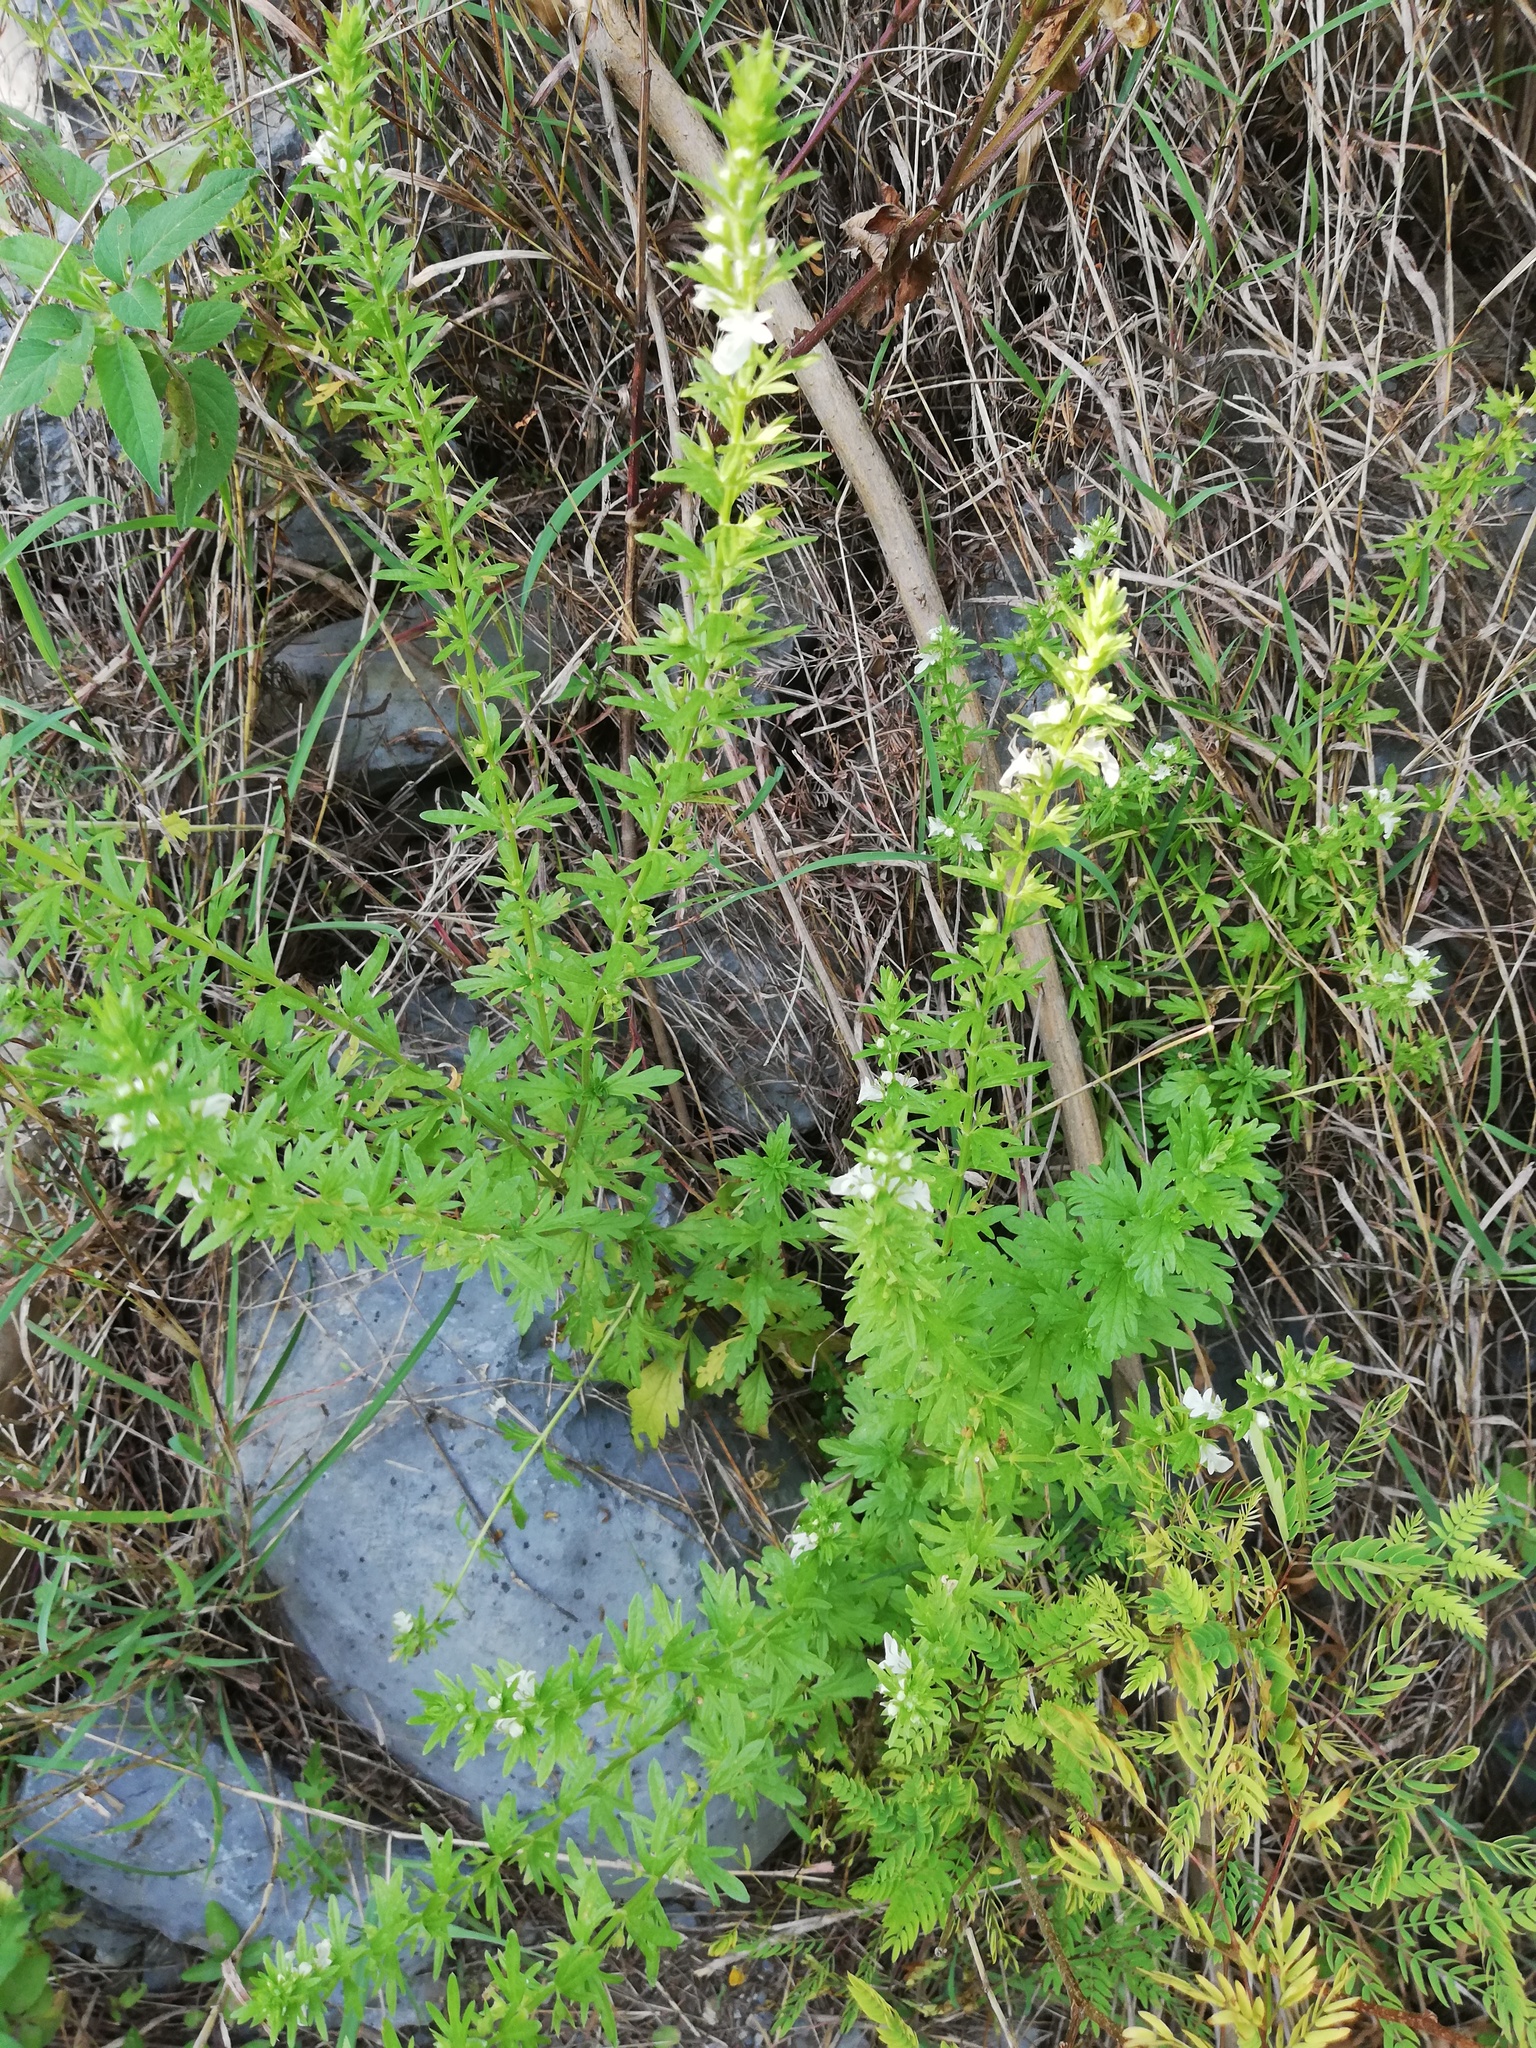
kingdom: Plantae
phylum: Tracheophyta
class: Magnoliopsida
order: Lamiales
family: Lamiaceae
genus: Teucrium
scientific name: Teucrium cubense
